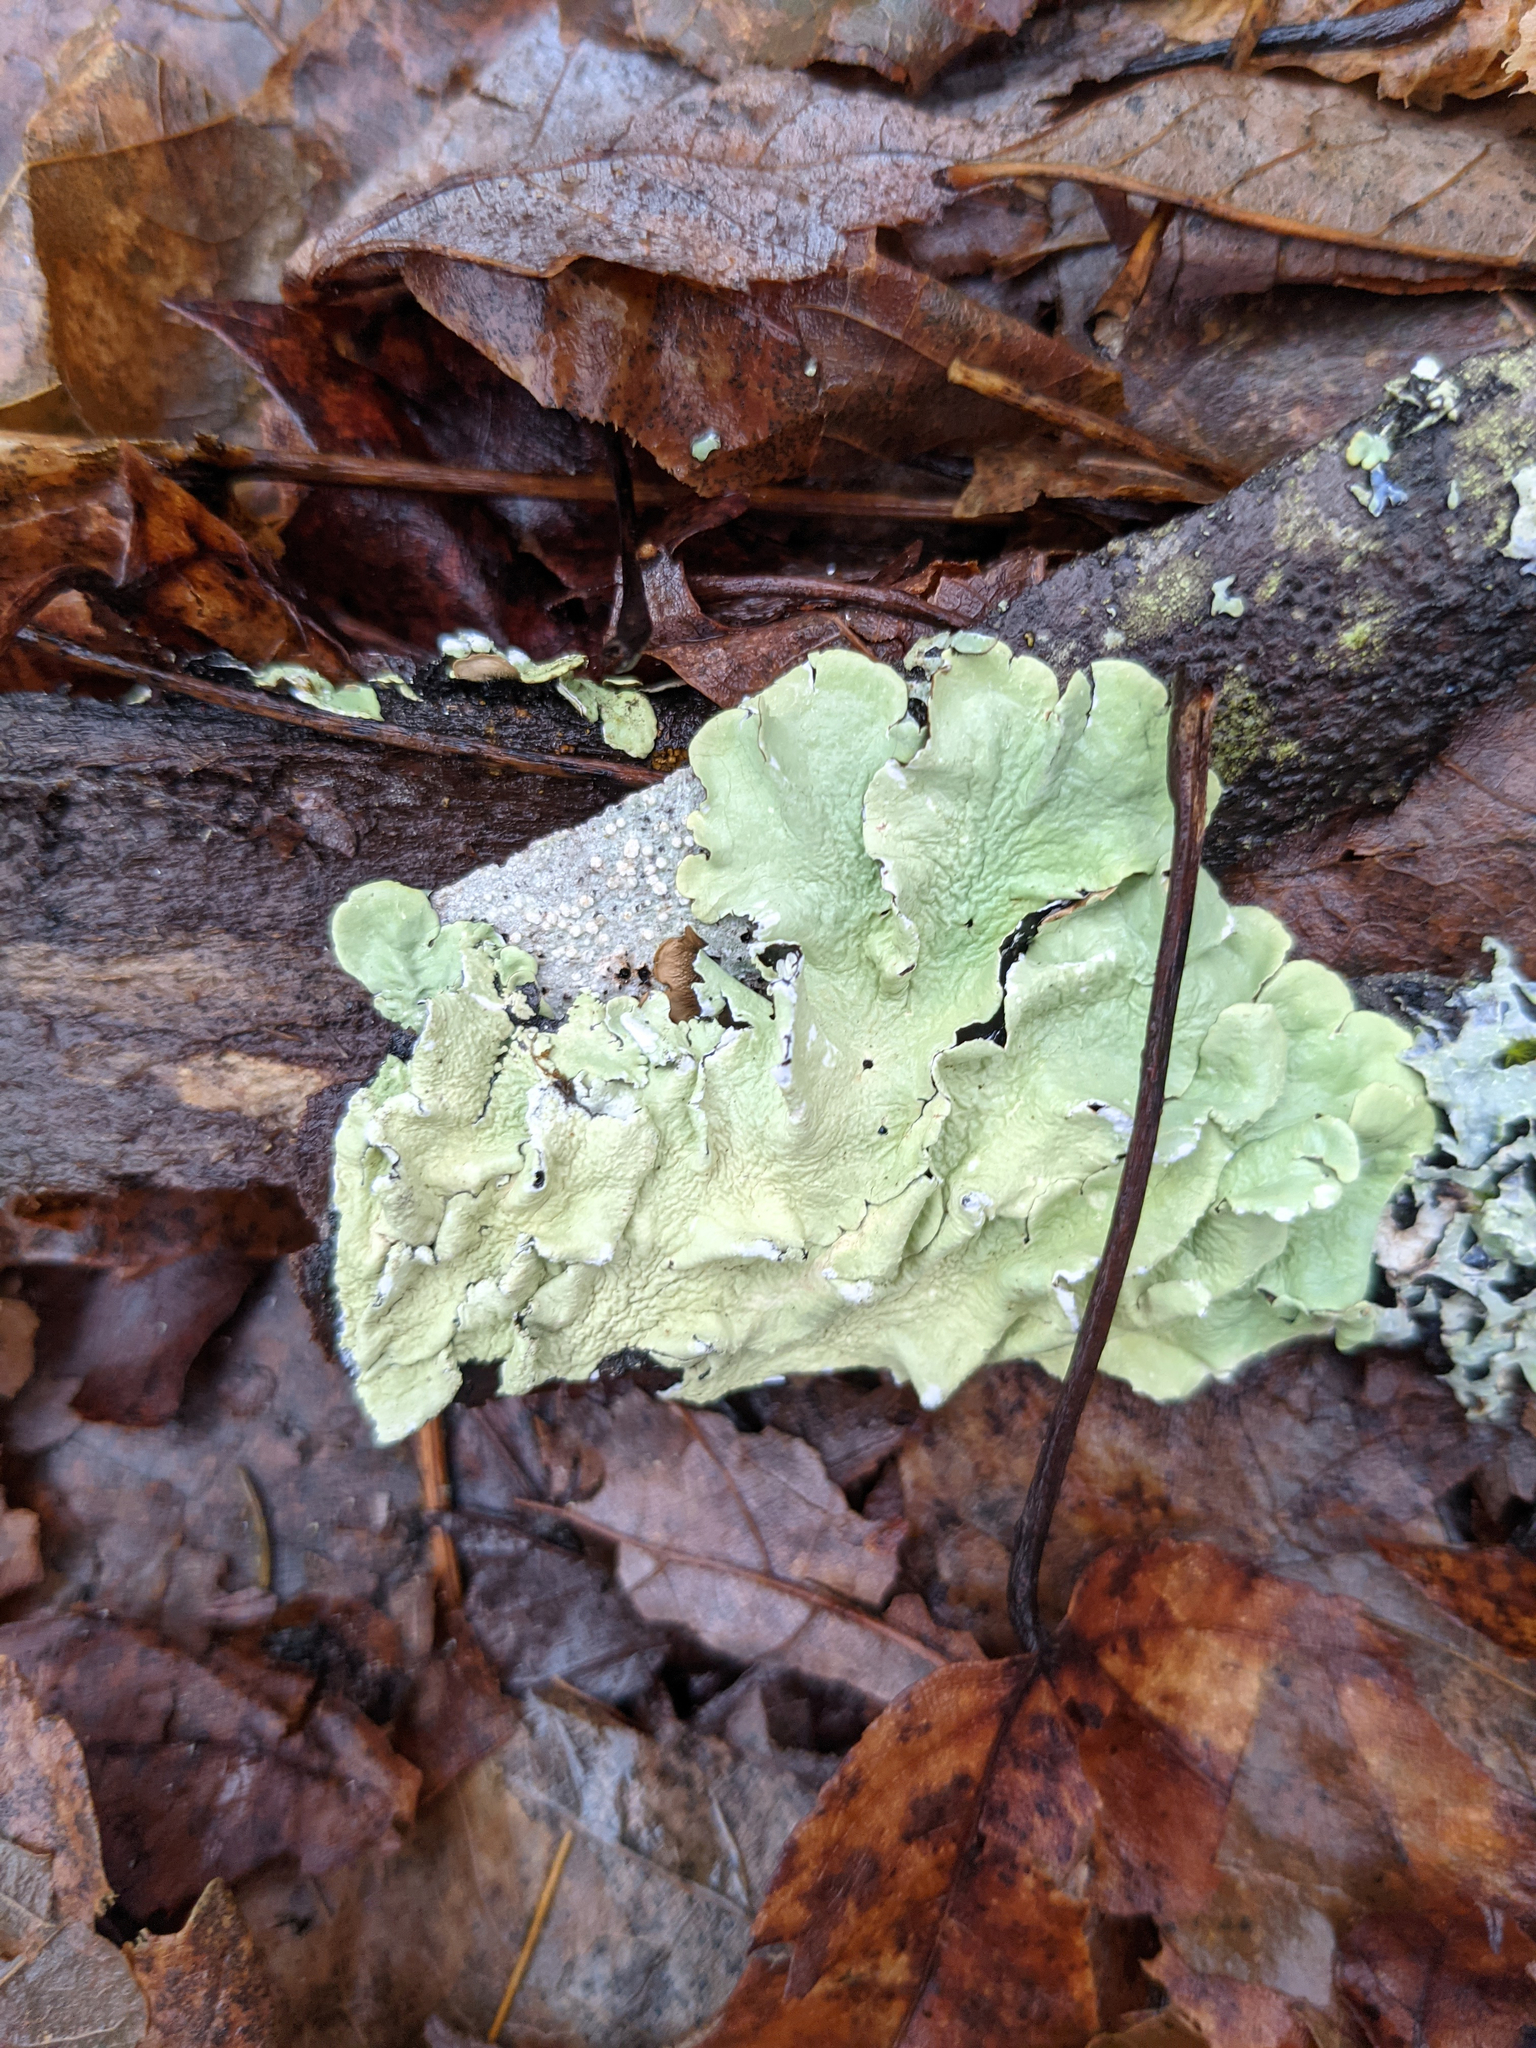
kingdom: Fungi
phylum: Ascomycota
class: Lecanoromycetes
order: Lecanorales
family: Parmeliaceae
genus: Flavoparmelia
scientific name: Flavoparmelia caperata
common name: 40-mile per hour lichen
